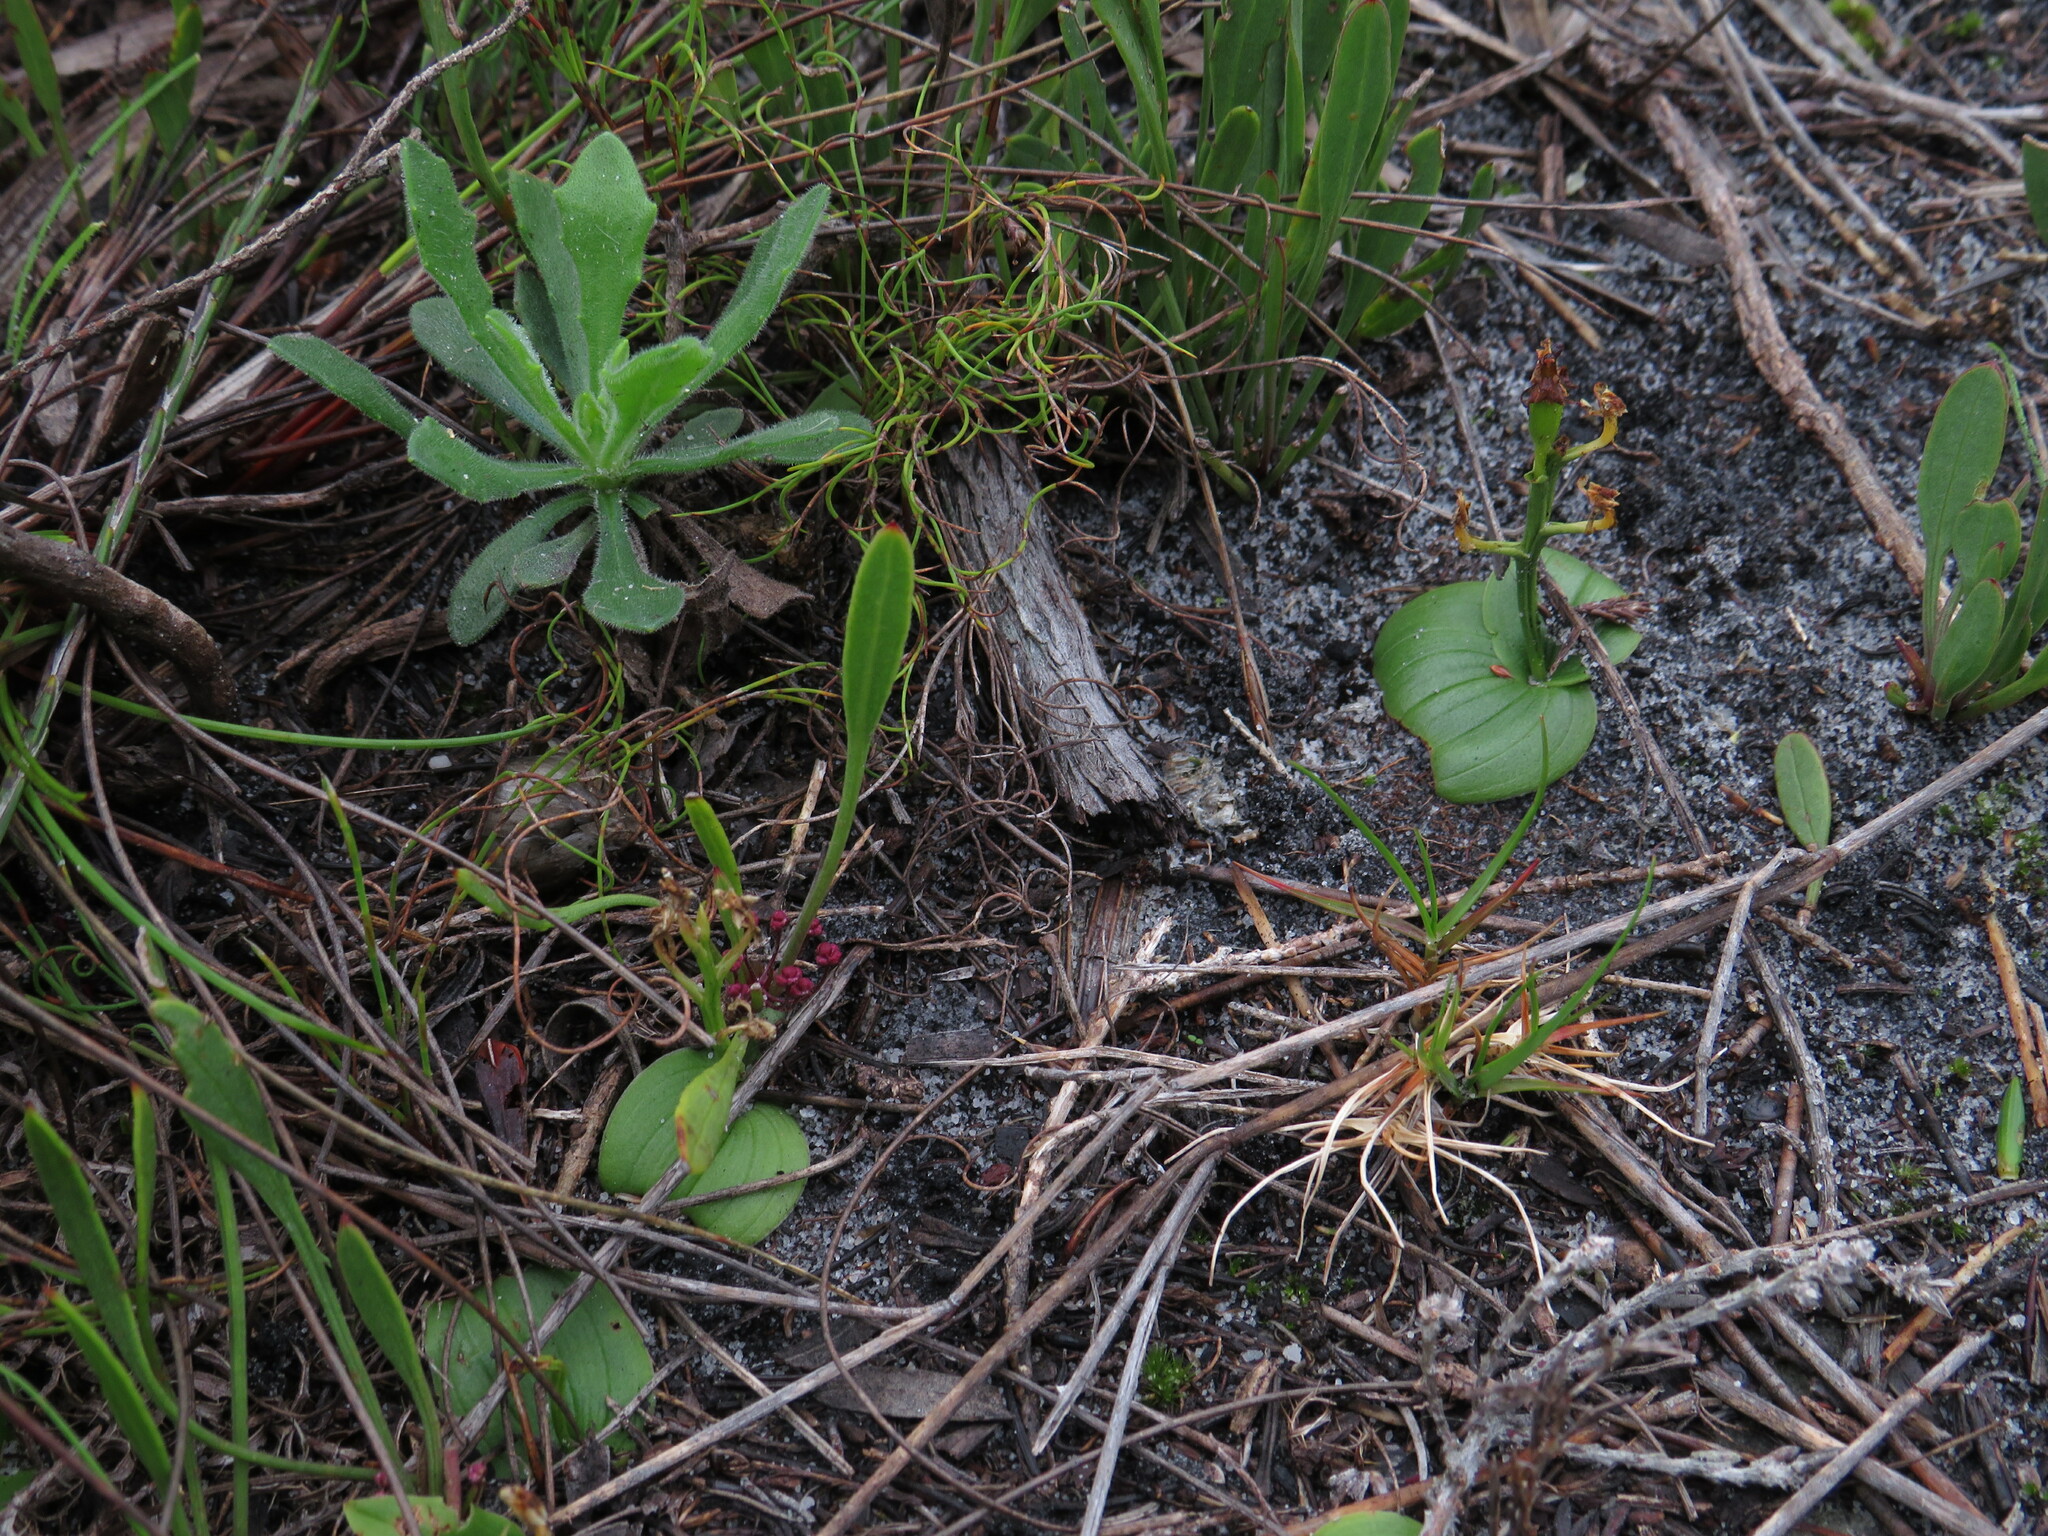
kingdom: Plantae
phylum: Tracheophyta
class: Liliopsida
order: Asparagales
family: Orchidaceae
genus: Liparis
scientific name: Liparis capensis
